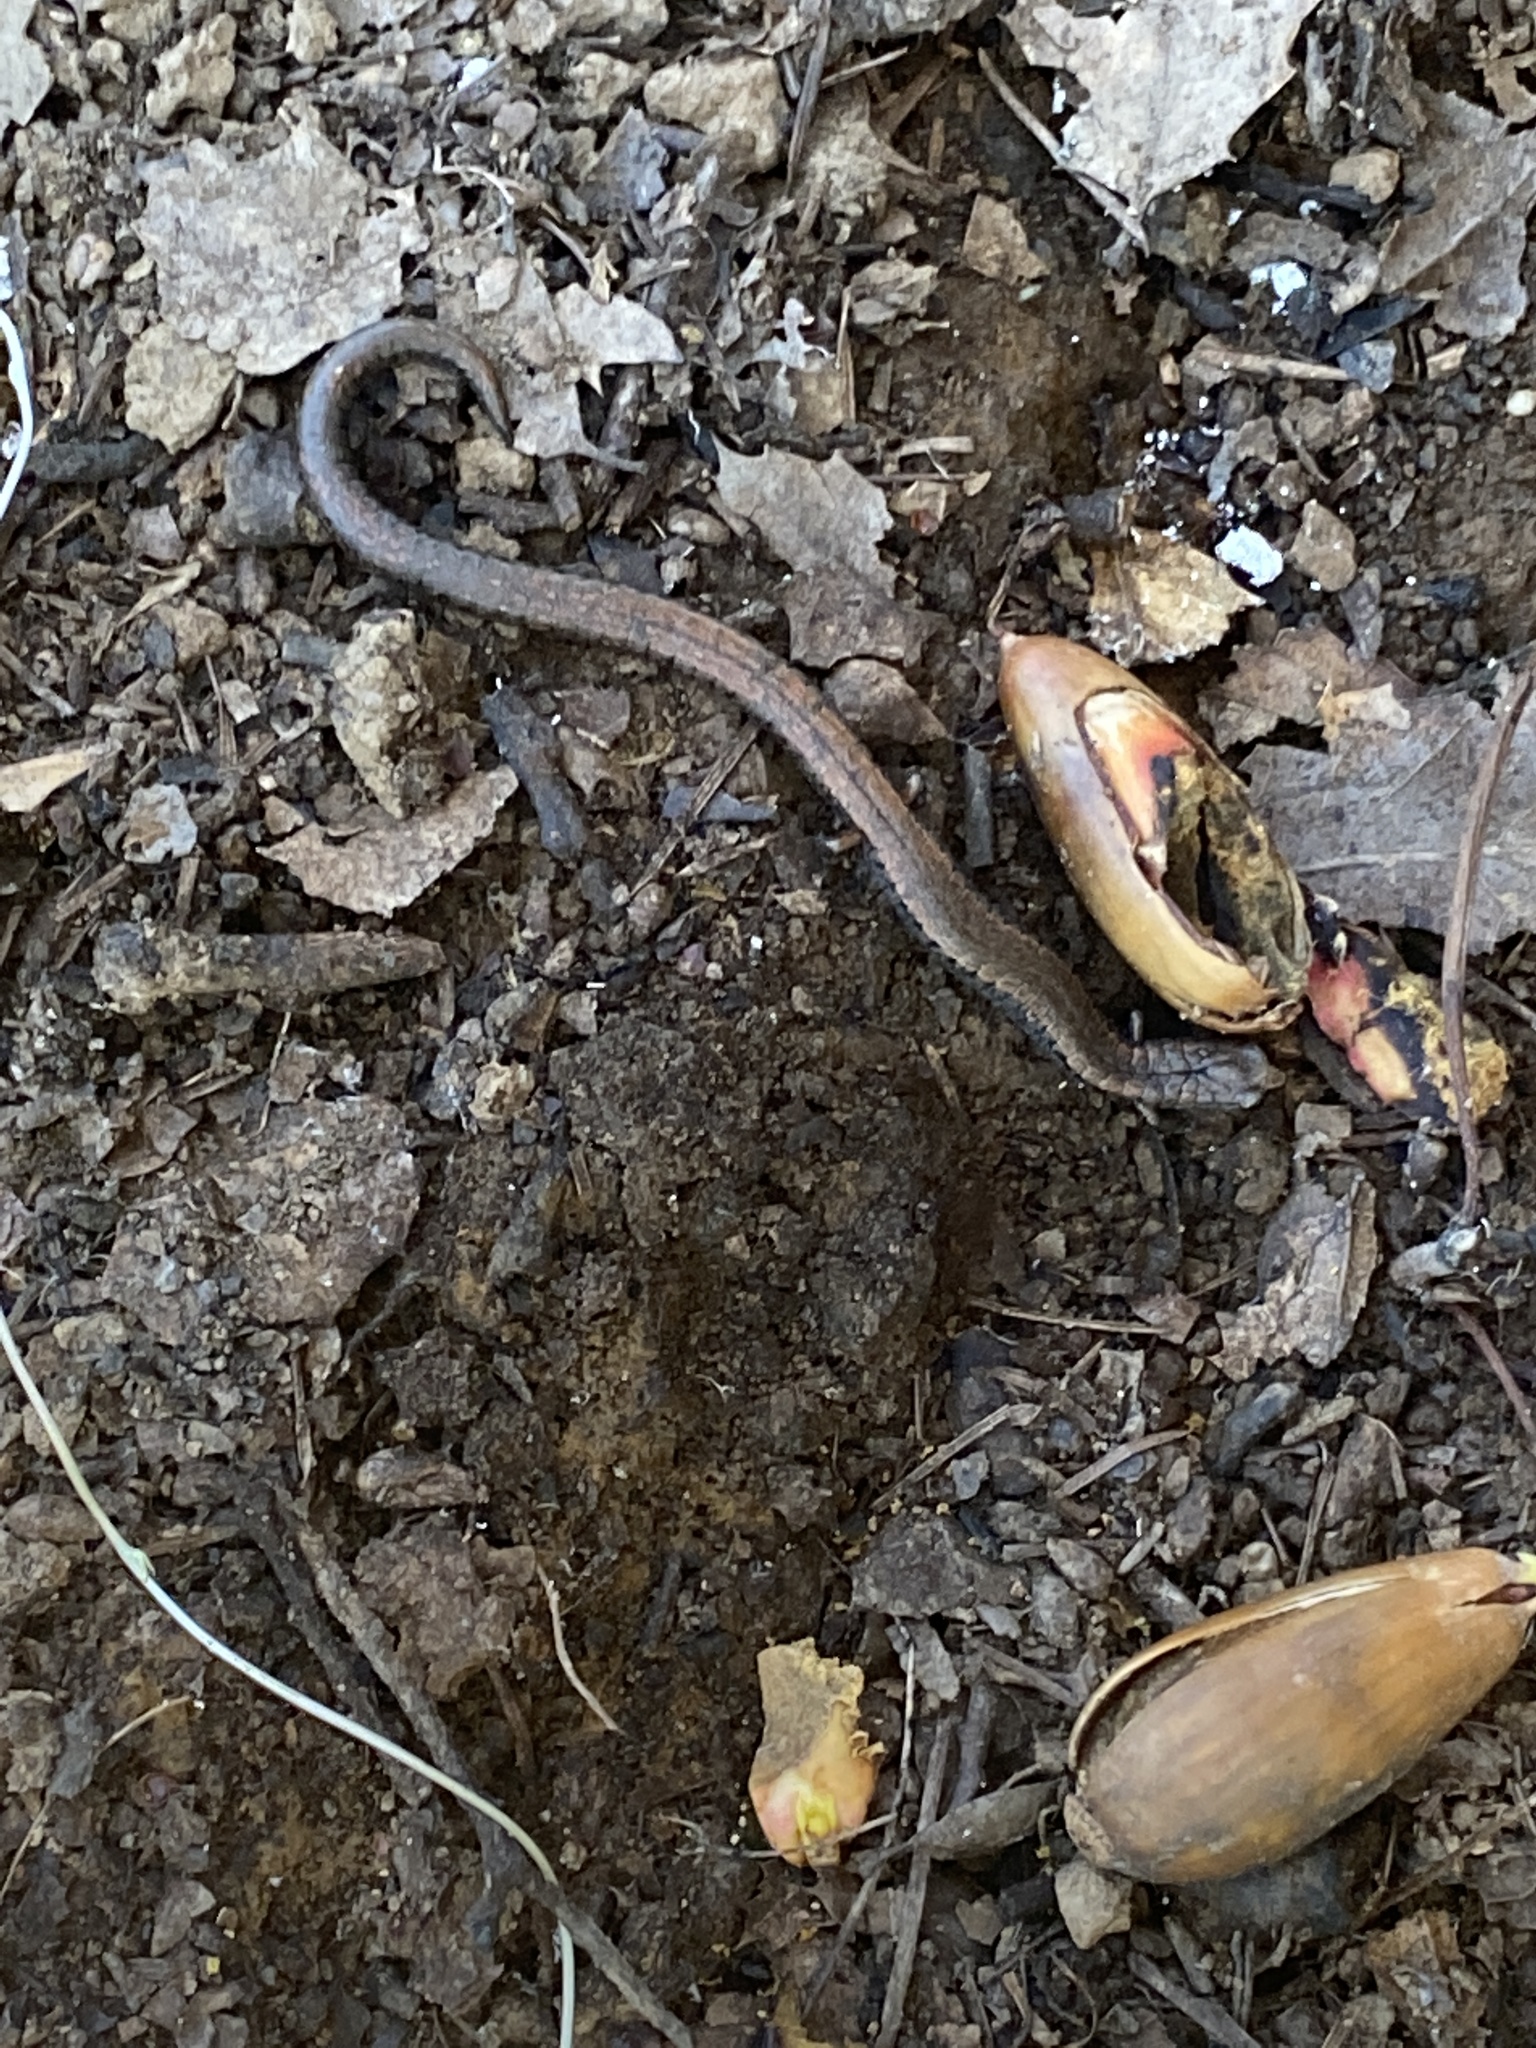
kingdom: Animalia
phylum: Chordata
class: Amphibia
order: Caudata
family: Plethodontidae
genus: Batrachoseps
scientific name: Batrachoseps attenuatus
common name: California slender salamander
